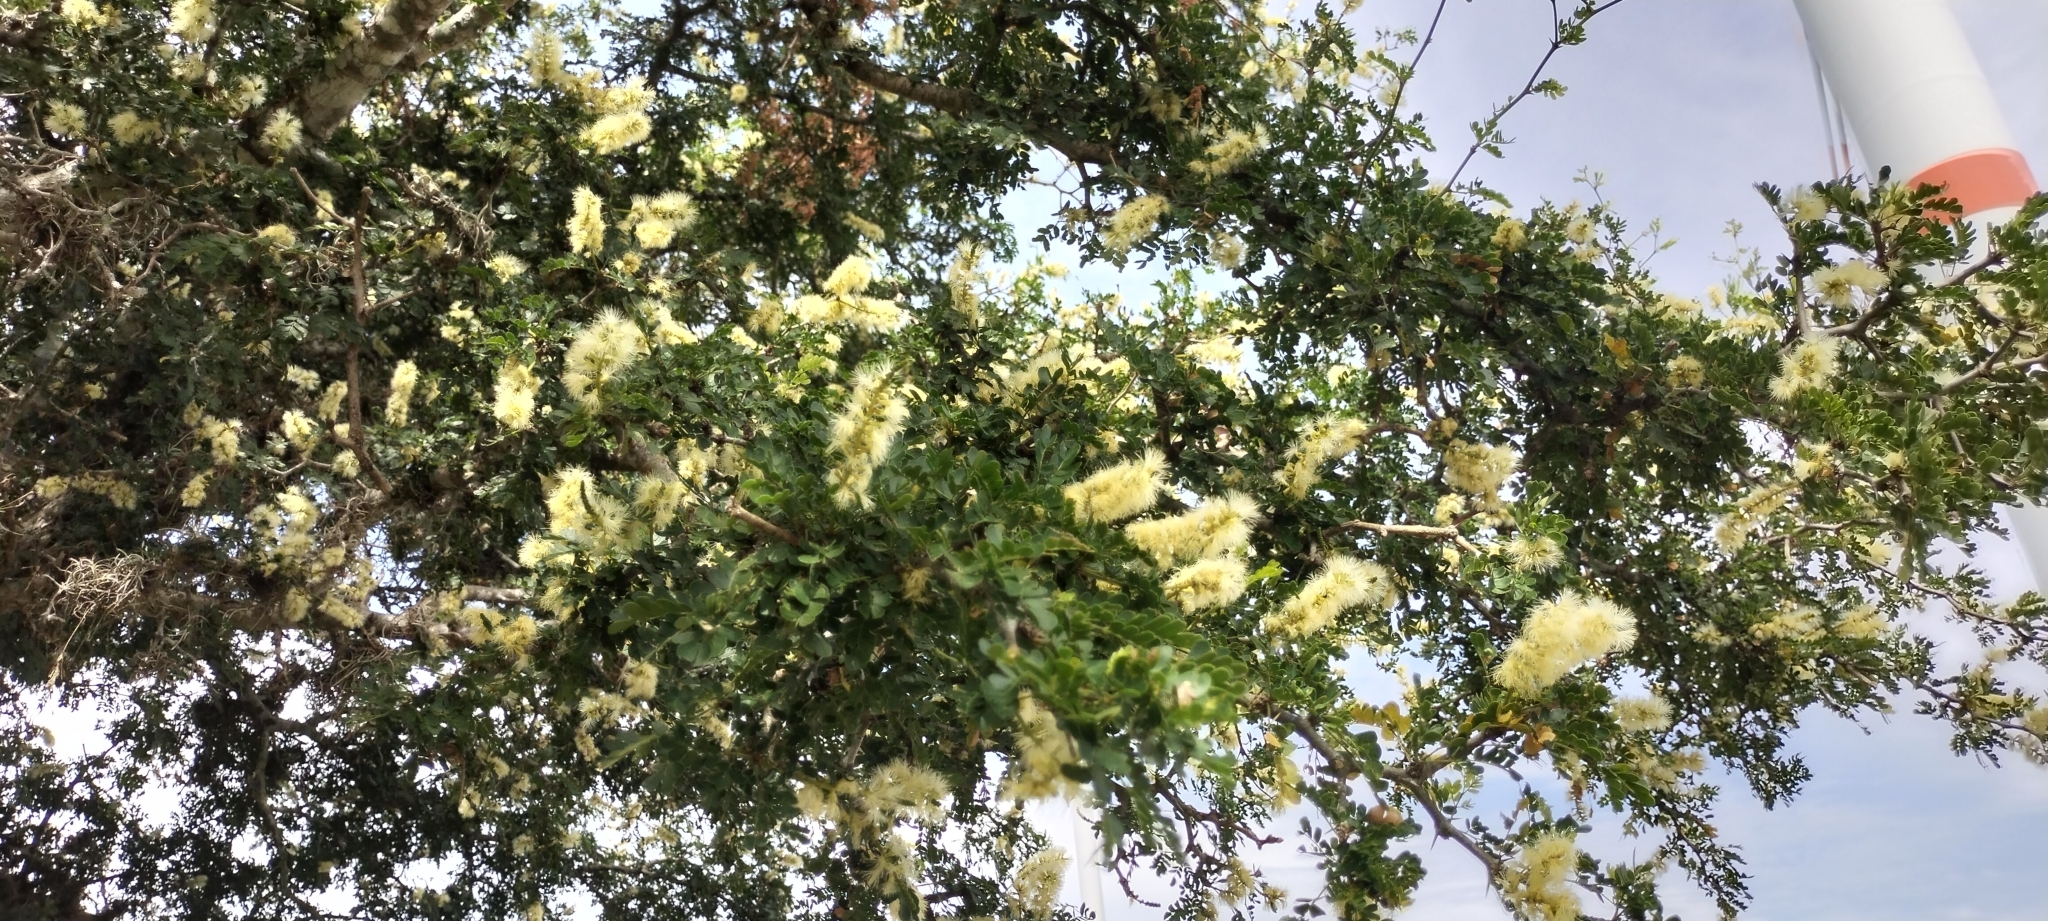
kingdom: Plantae
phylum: Tracheophyta
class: Magnoliopsida
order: Fabales
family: Fabaceae
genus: Ebenopsis
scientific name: Ebenopsis ebano
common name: Ebony blackbead
